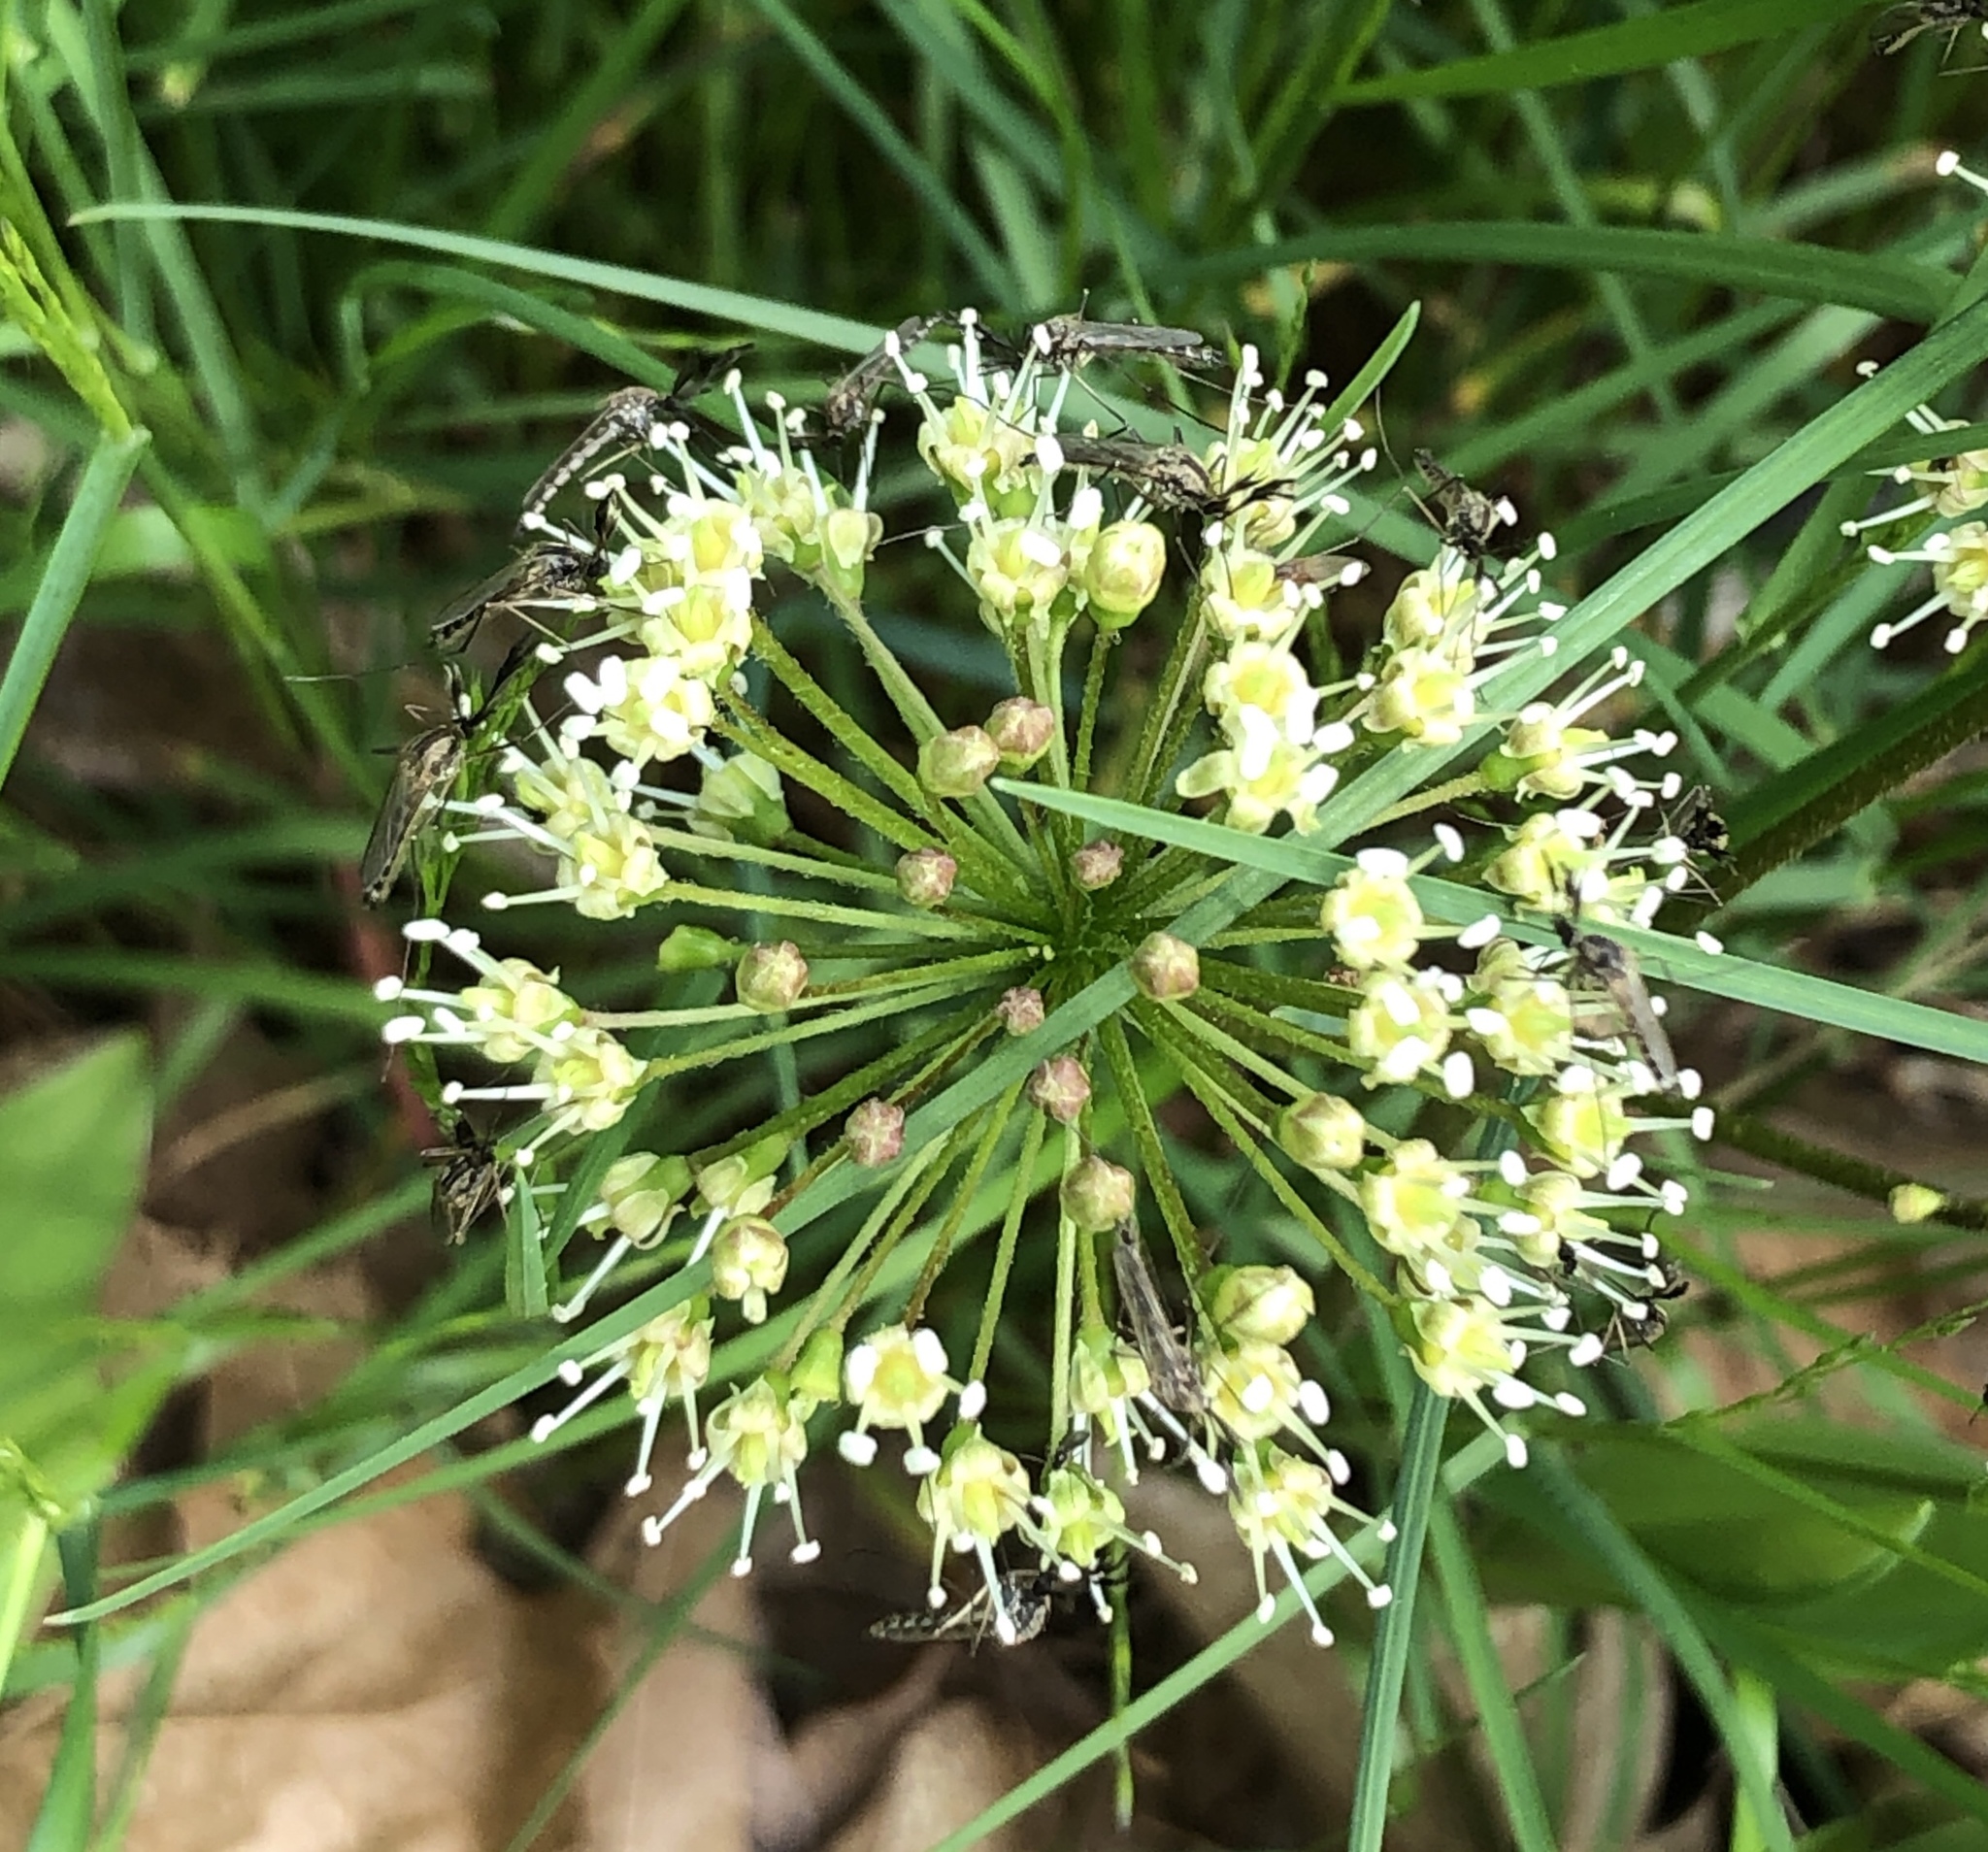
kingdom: Plantae
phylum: Tracheophyta
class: Magnoliopsida
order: Apiales
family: Araliaceae
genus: Aralia
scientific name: Aralia nudicaulis
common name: Wild sarsaparilla
